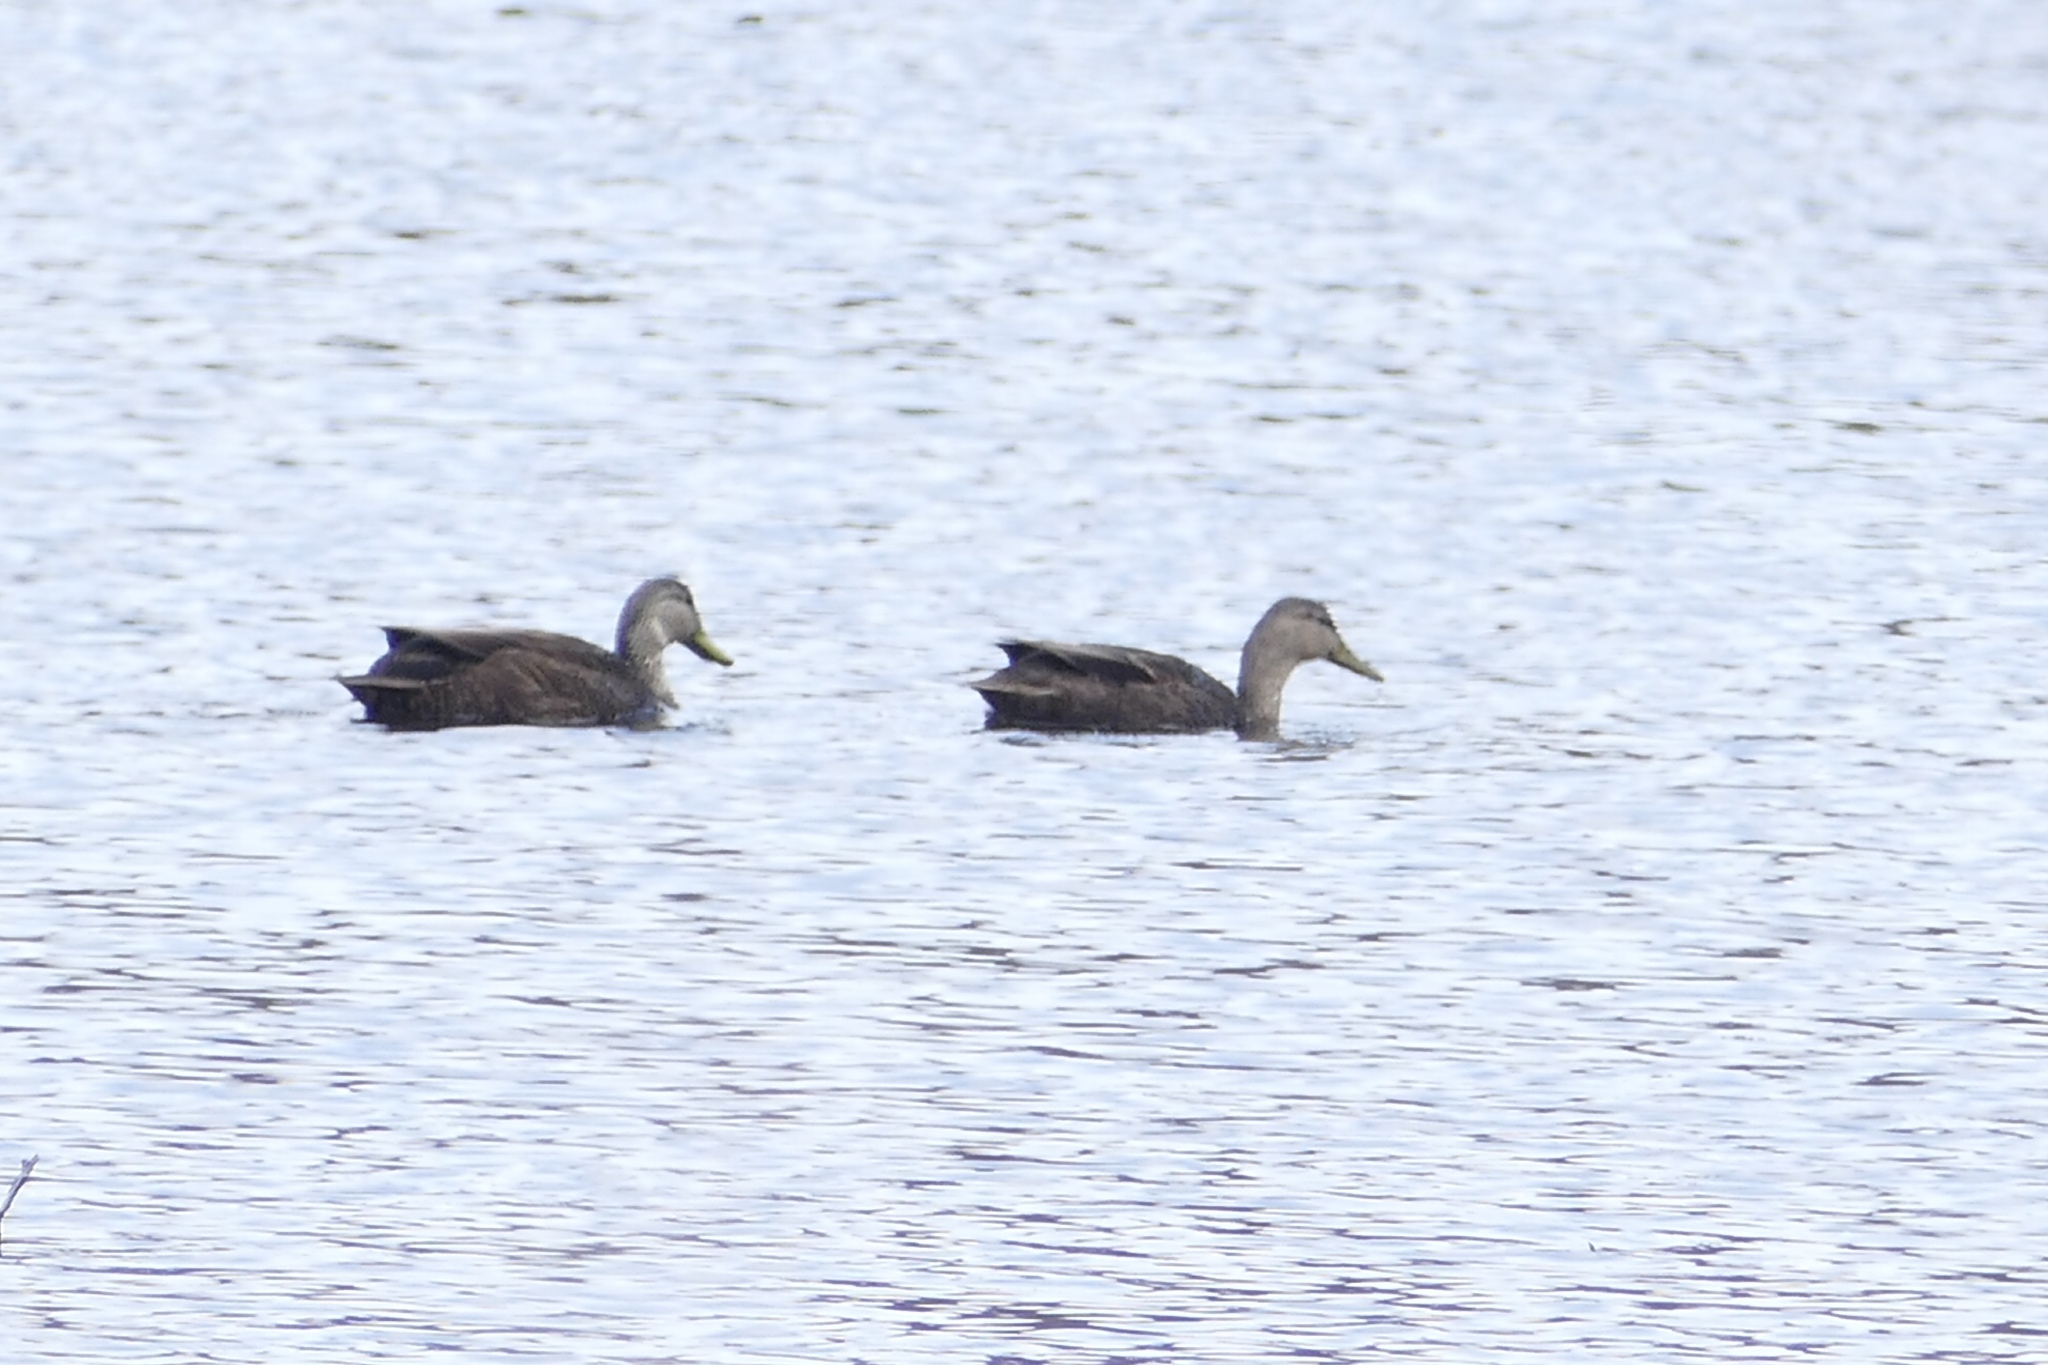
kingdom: Animalia
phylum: Chordata
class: Aves
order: Anseriformes
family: Anatidae
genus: Anas
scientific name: Anas rubripes
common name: American black duck
